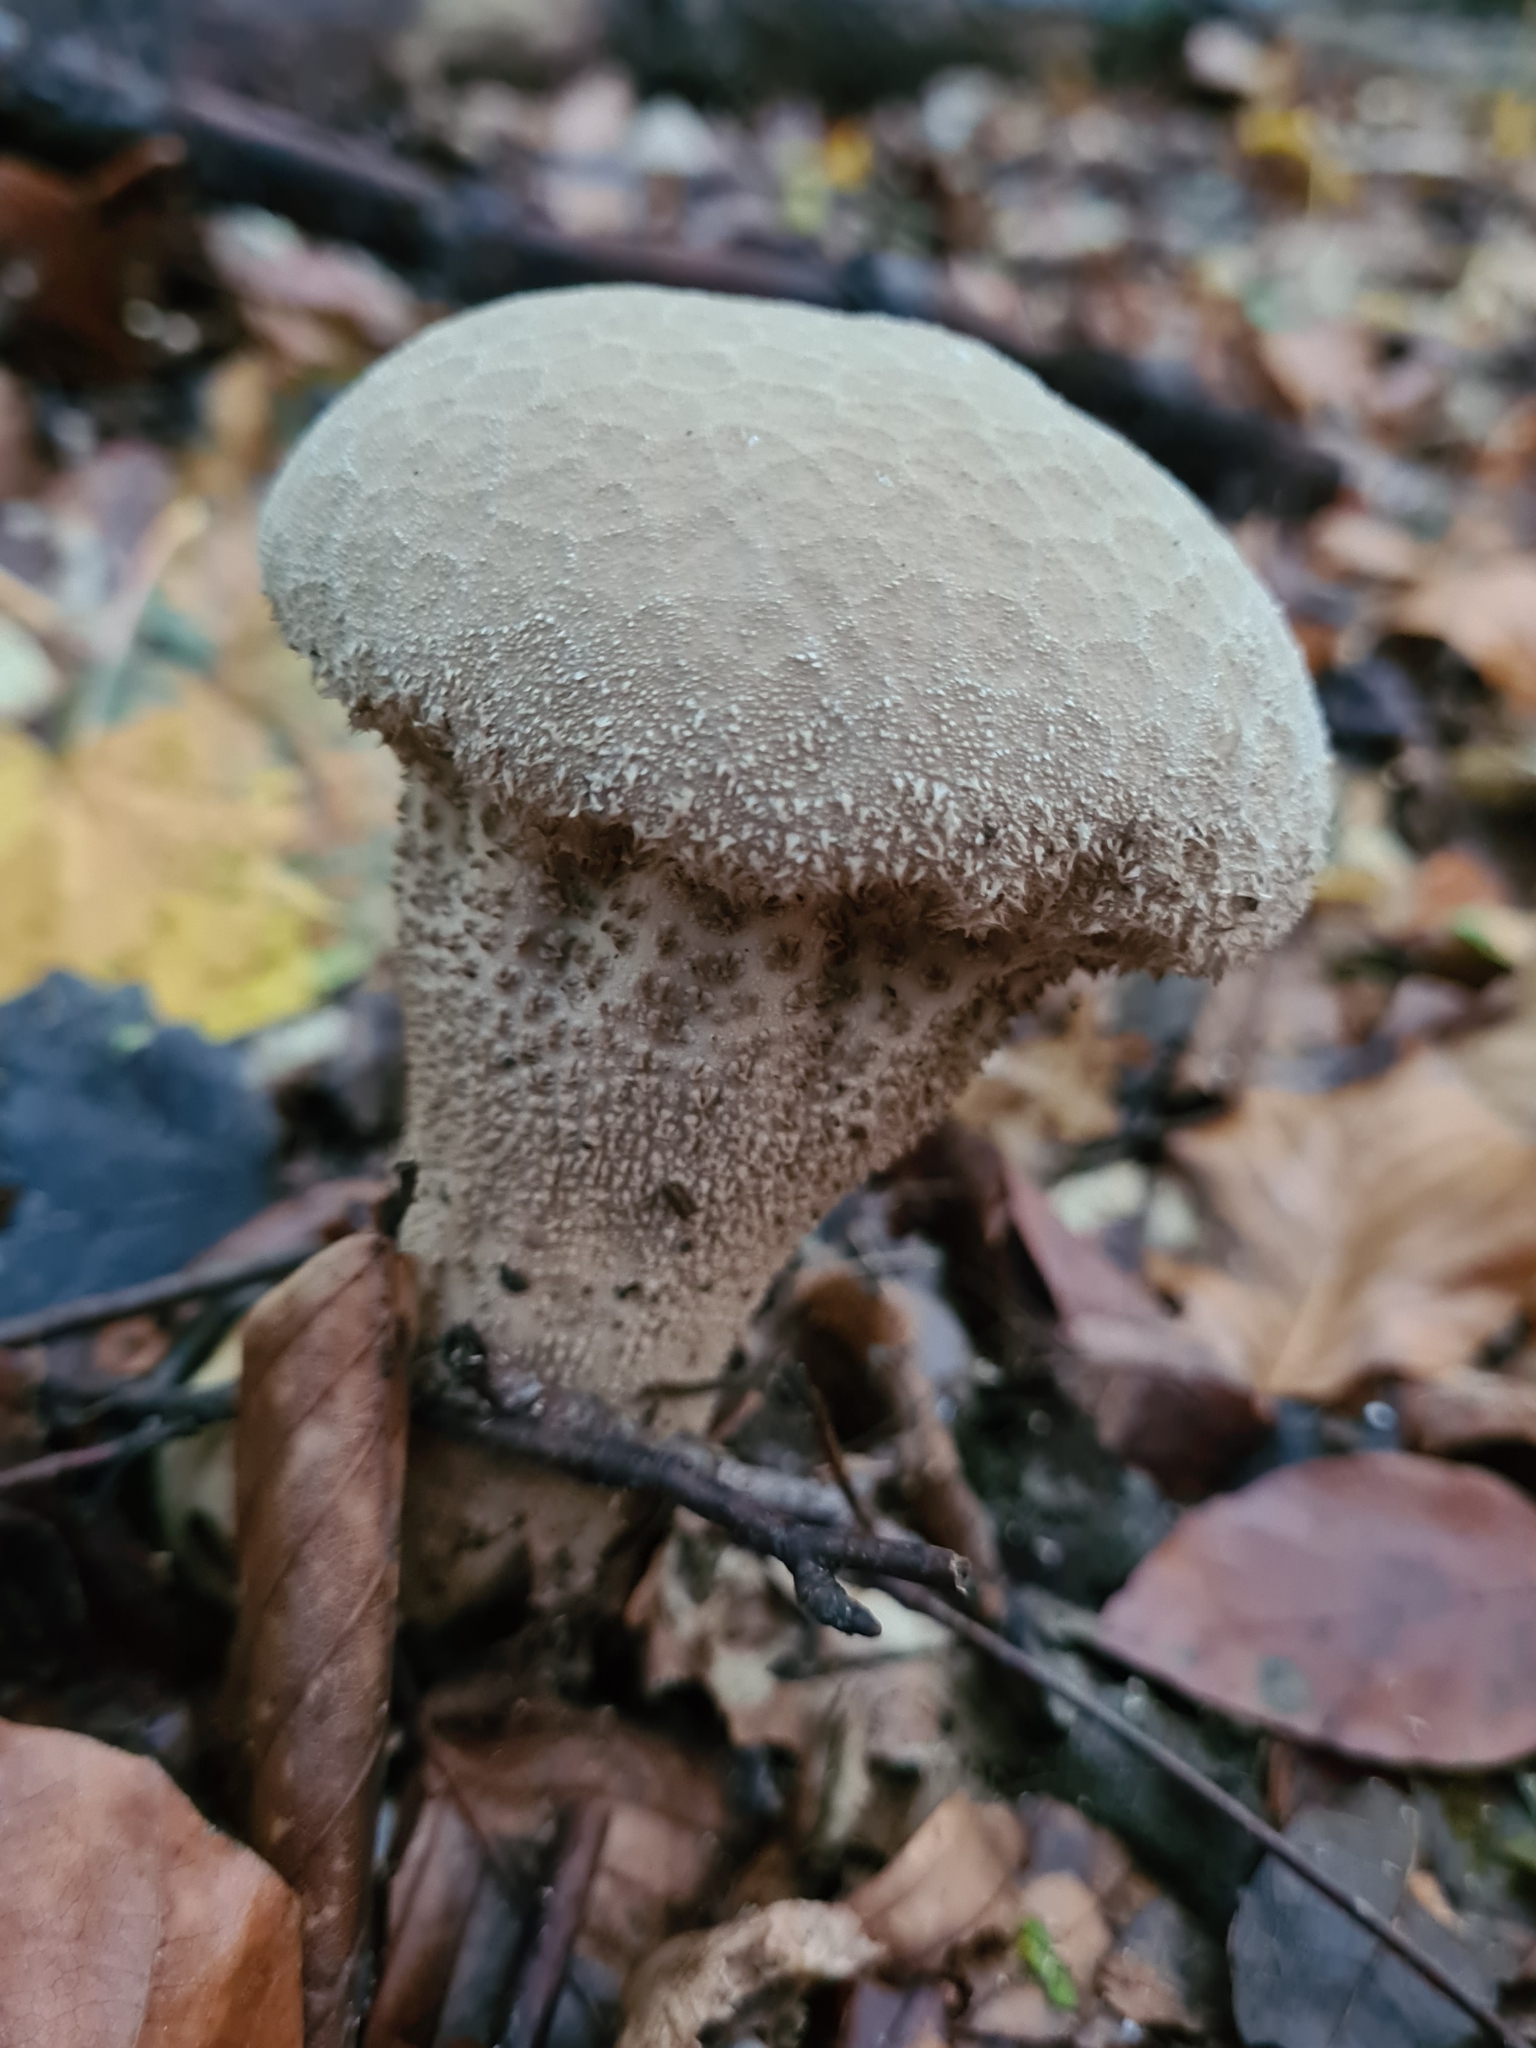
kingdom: Fungi
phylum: Basidiomycota
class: Agaricomycetes
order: Agaricales
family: Lycoperdaceae
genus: Lycoperdon
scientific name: Lycoperdon excipuliforme
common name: Pestle puffball
